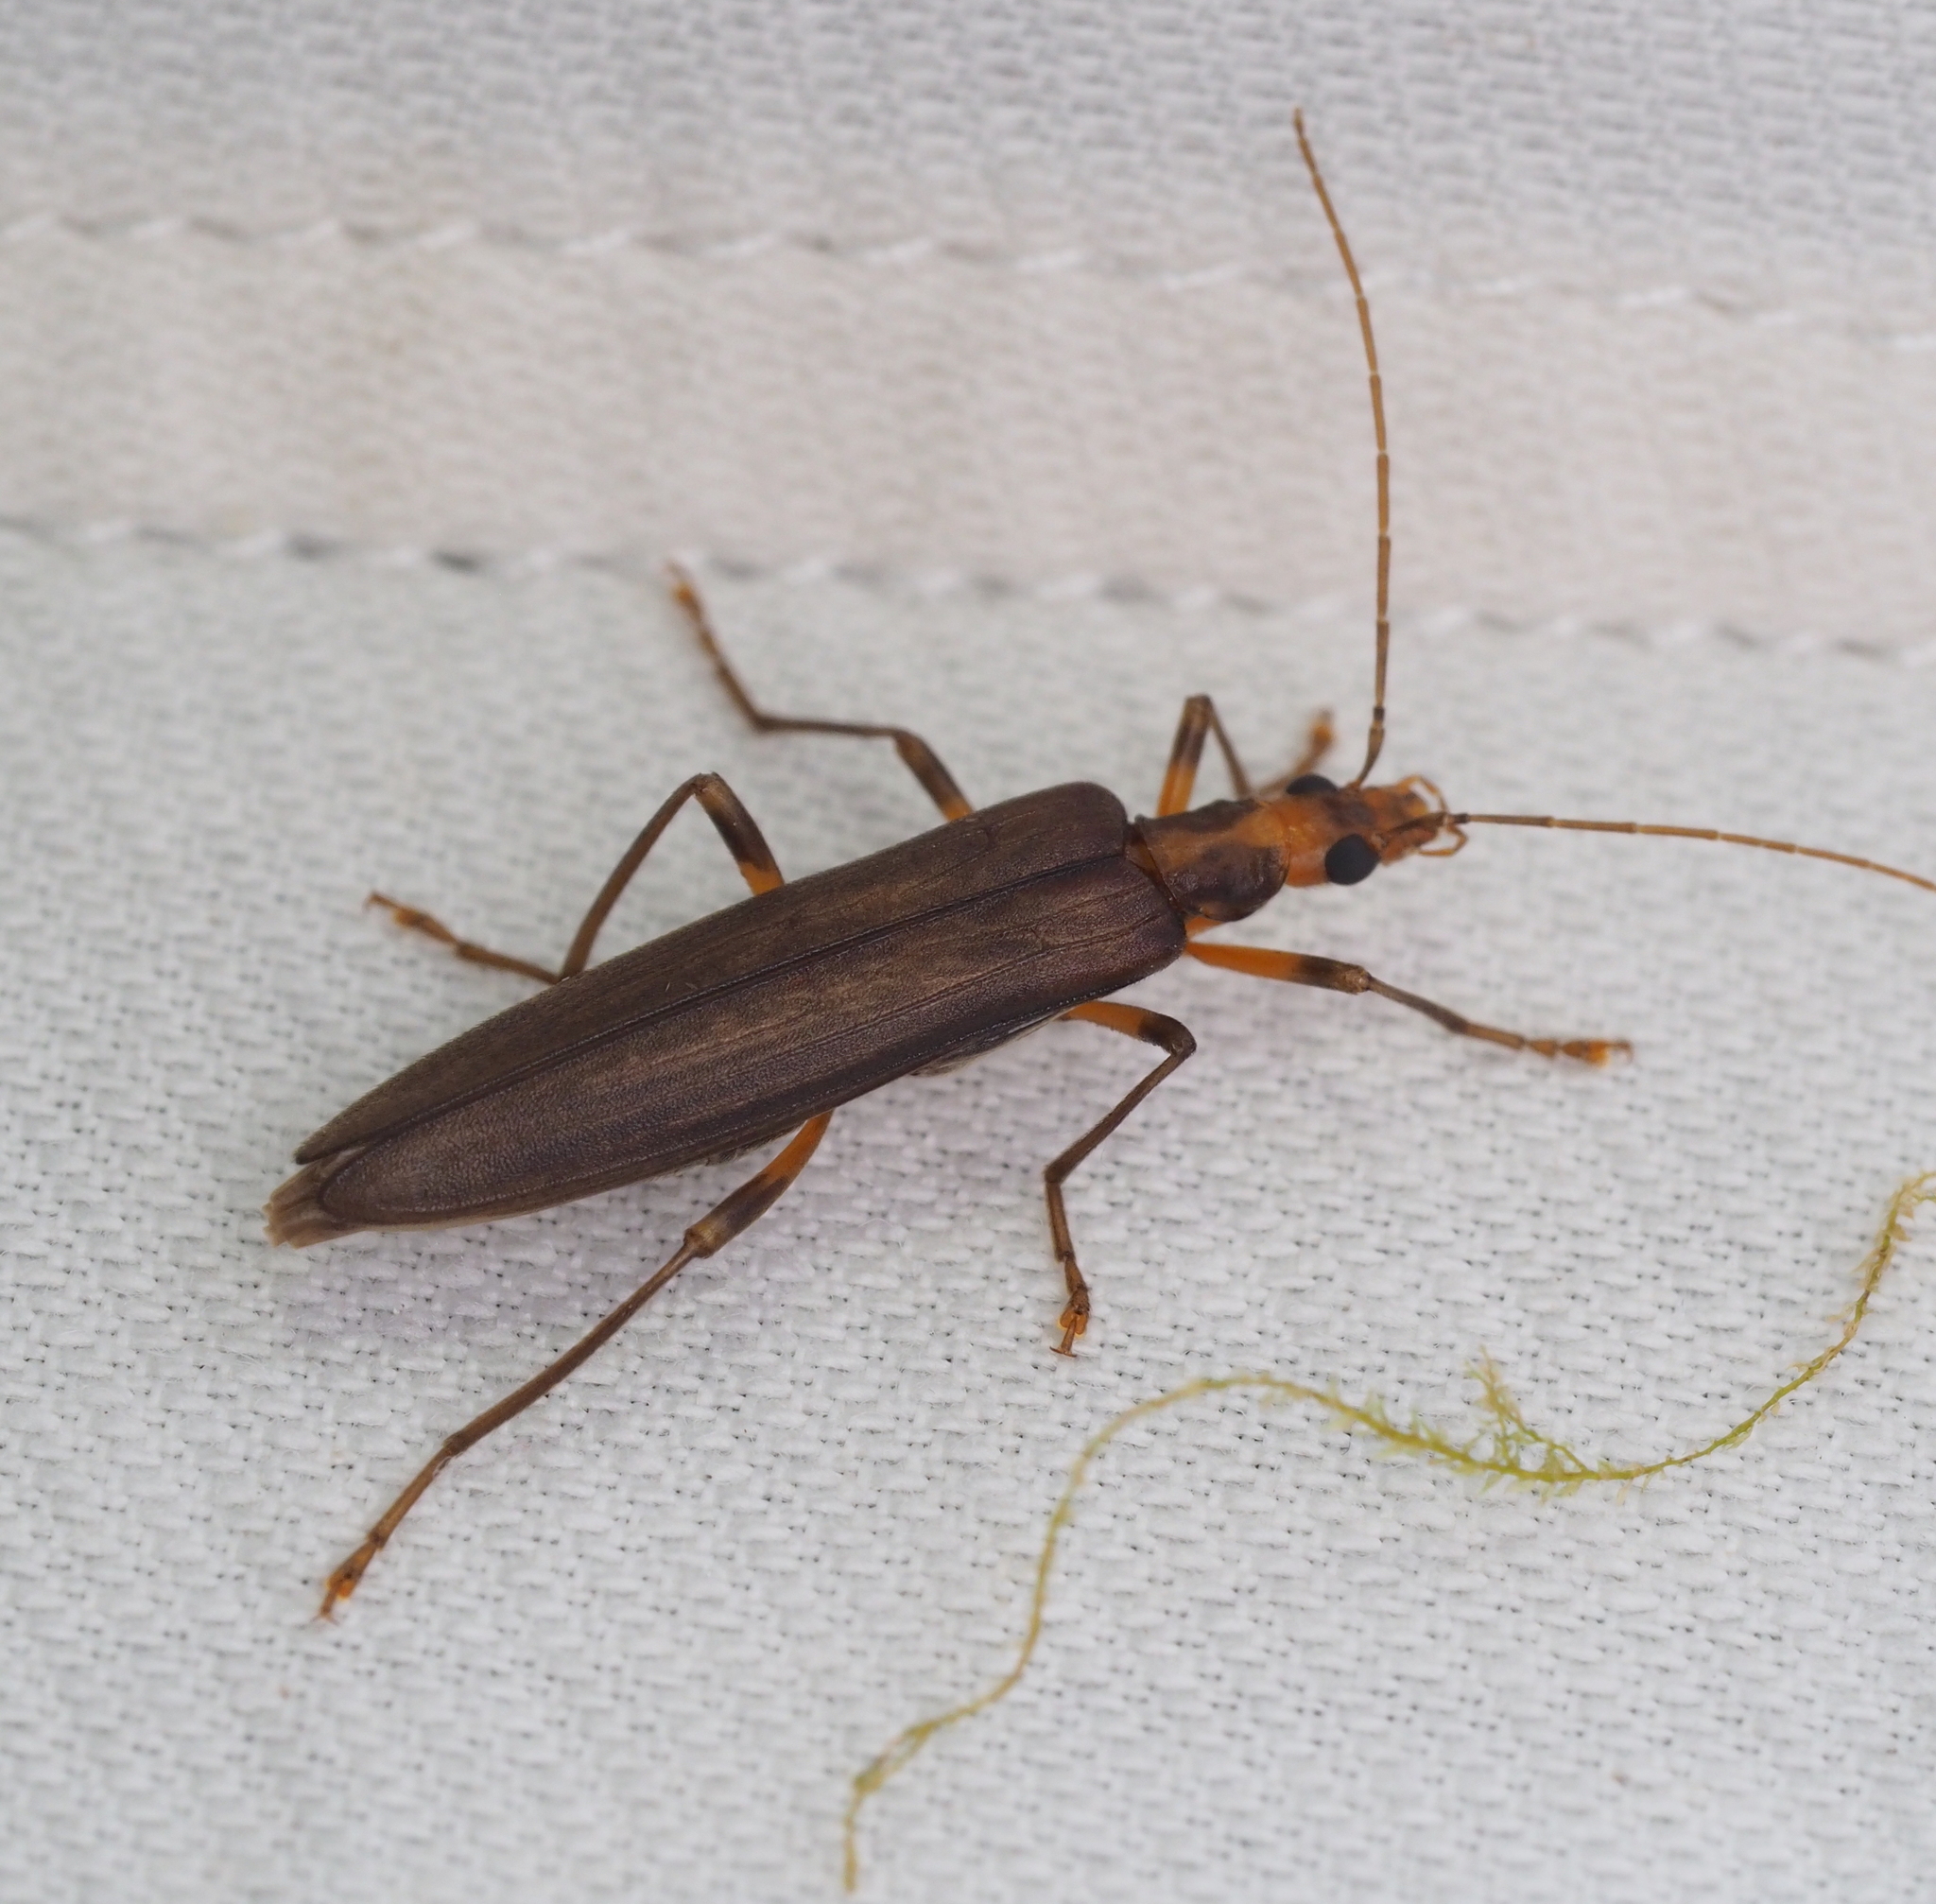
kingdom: Animalia
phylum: Arthropoda
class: Insecta
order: Coleoptera
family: Oedemeridae
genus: Oedemera
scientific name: Oedemera femoralis
